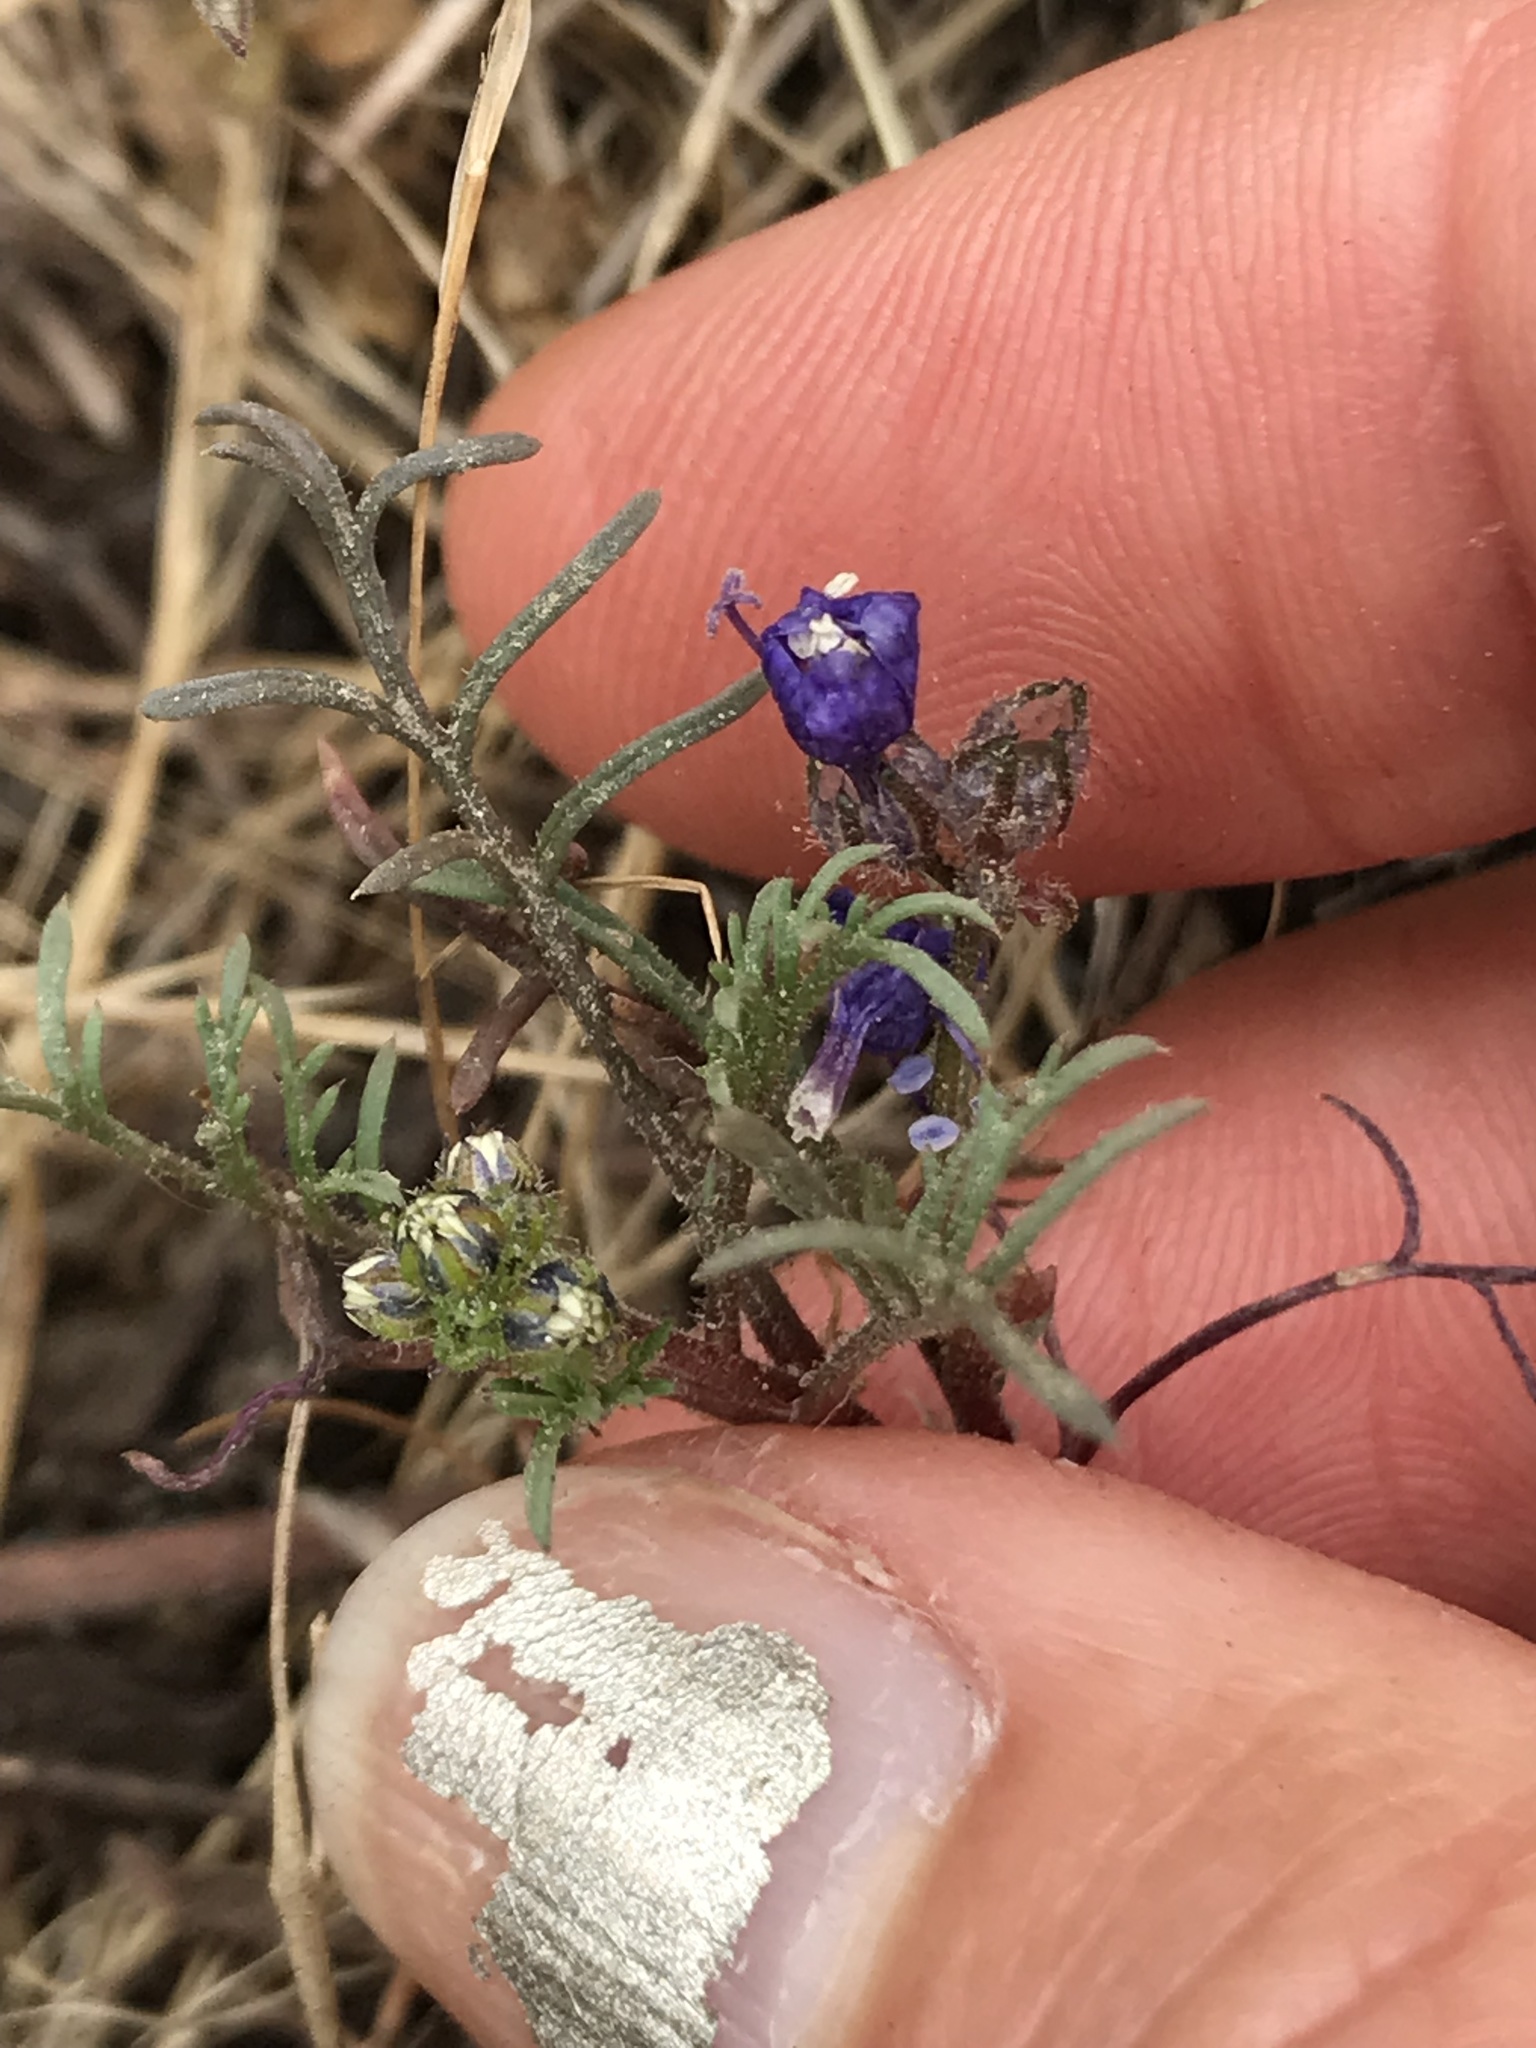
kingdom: Plantae
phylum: Tracheophyta
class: Magnoliopsida
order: Ericales
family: Polemoniaceae
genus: Gilia
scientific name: Gilia capitata
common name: Bluehead gilia
